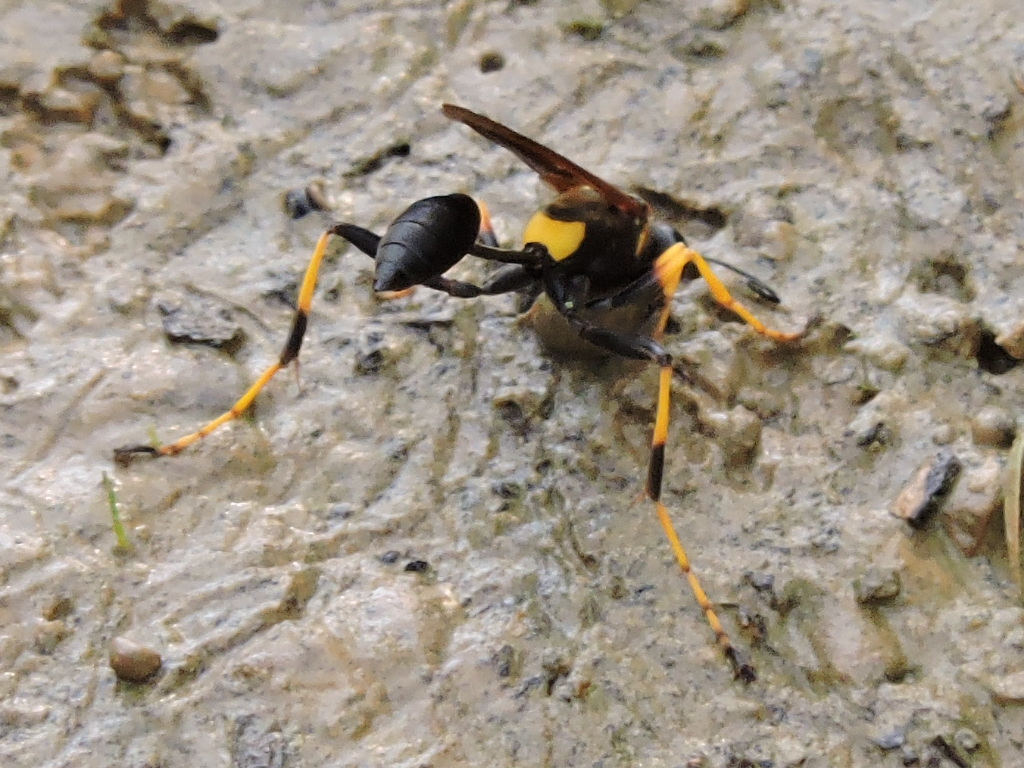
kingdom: Animalia
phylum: Arthropoda
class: Insecta
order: Hymenoptera
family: Sphecidae
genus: Sceliphron
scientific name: Sceliphron caementarium
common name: Mud dauber
